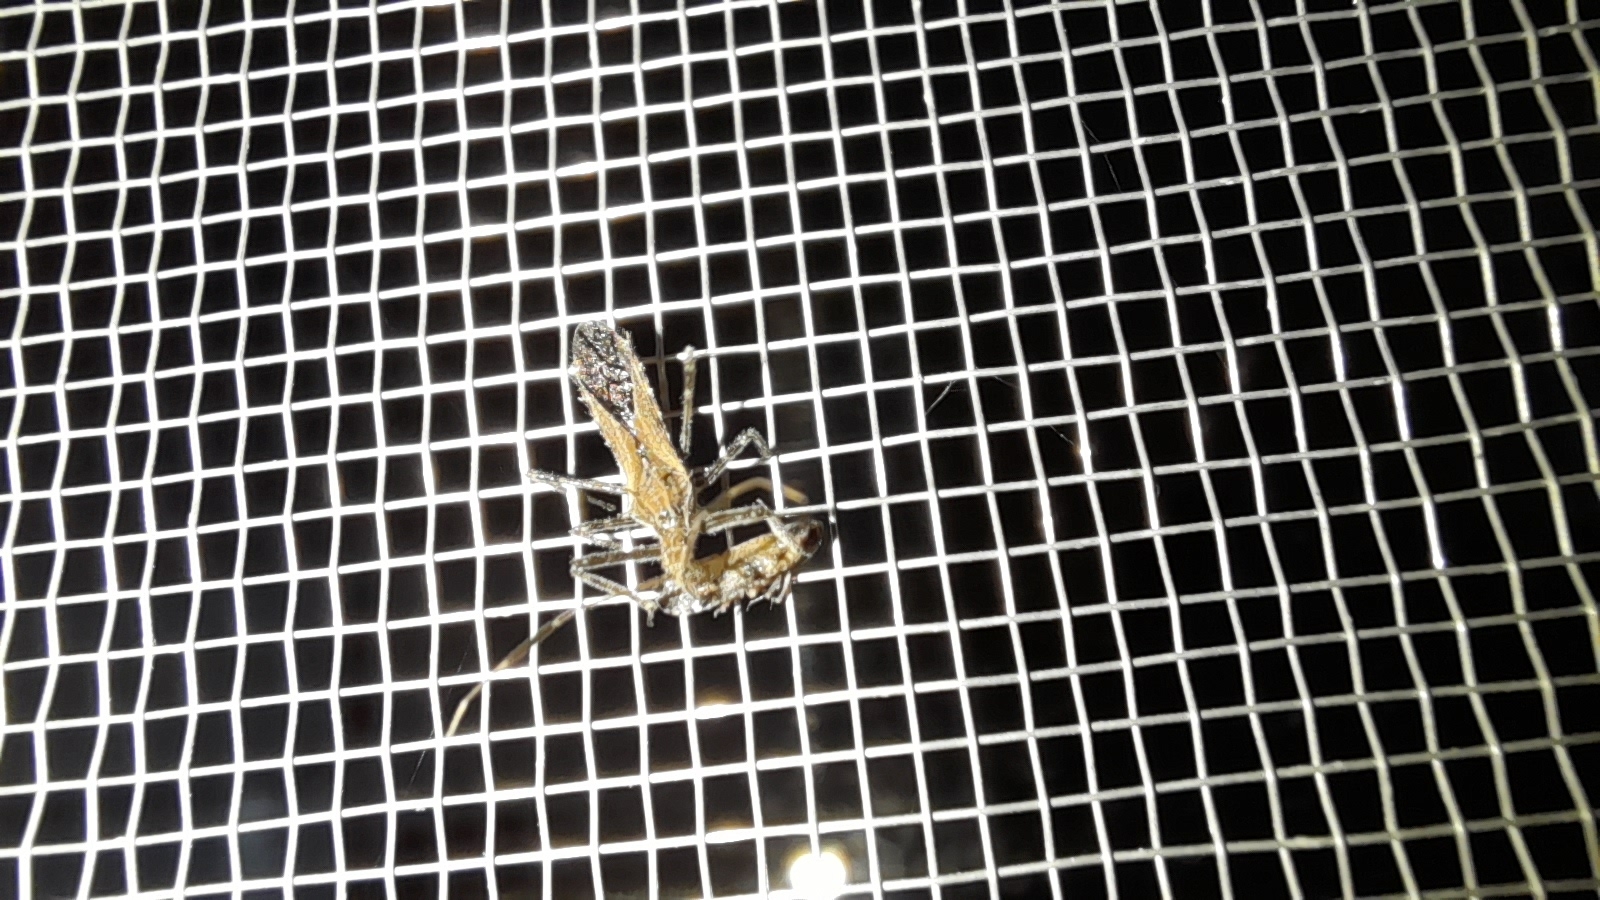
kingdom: Animalia
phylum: Arthropoda
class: Insecta
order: Hemiptera
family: Reduviidae
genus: Atrachelus
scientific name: Atrachelus cinereus
